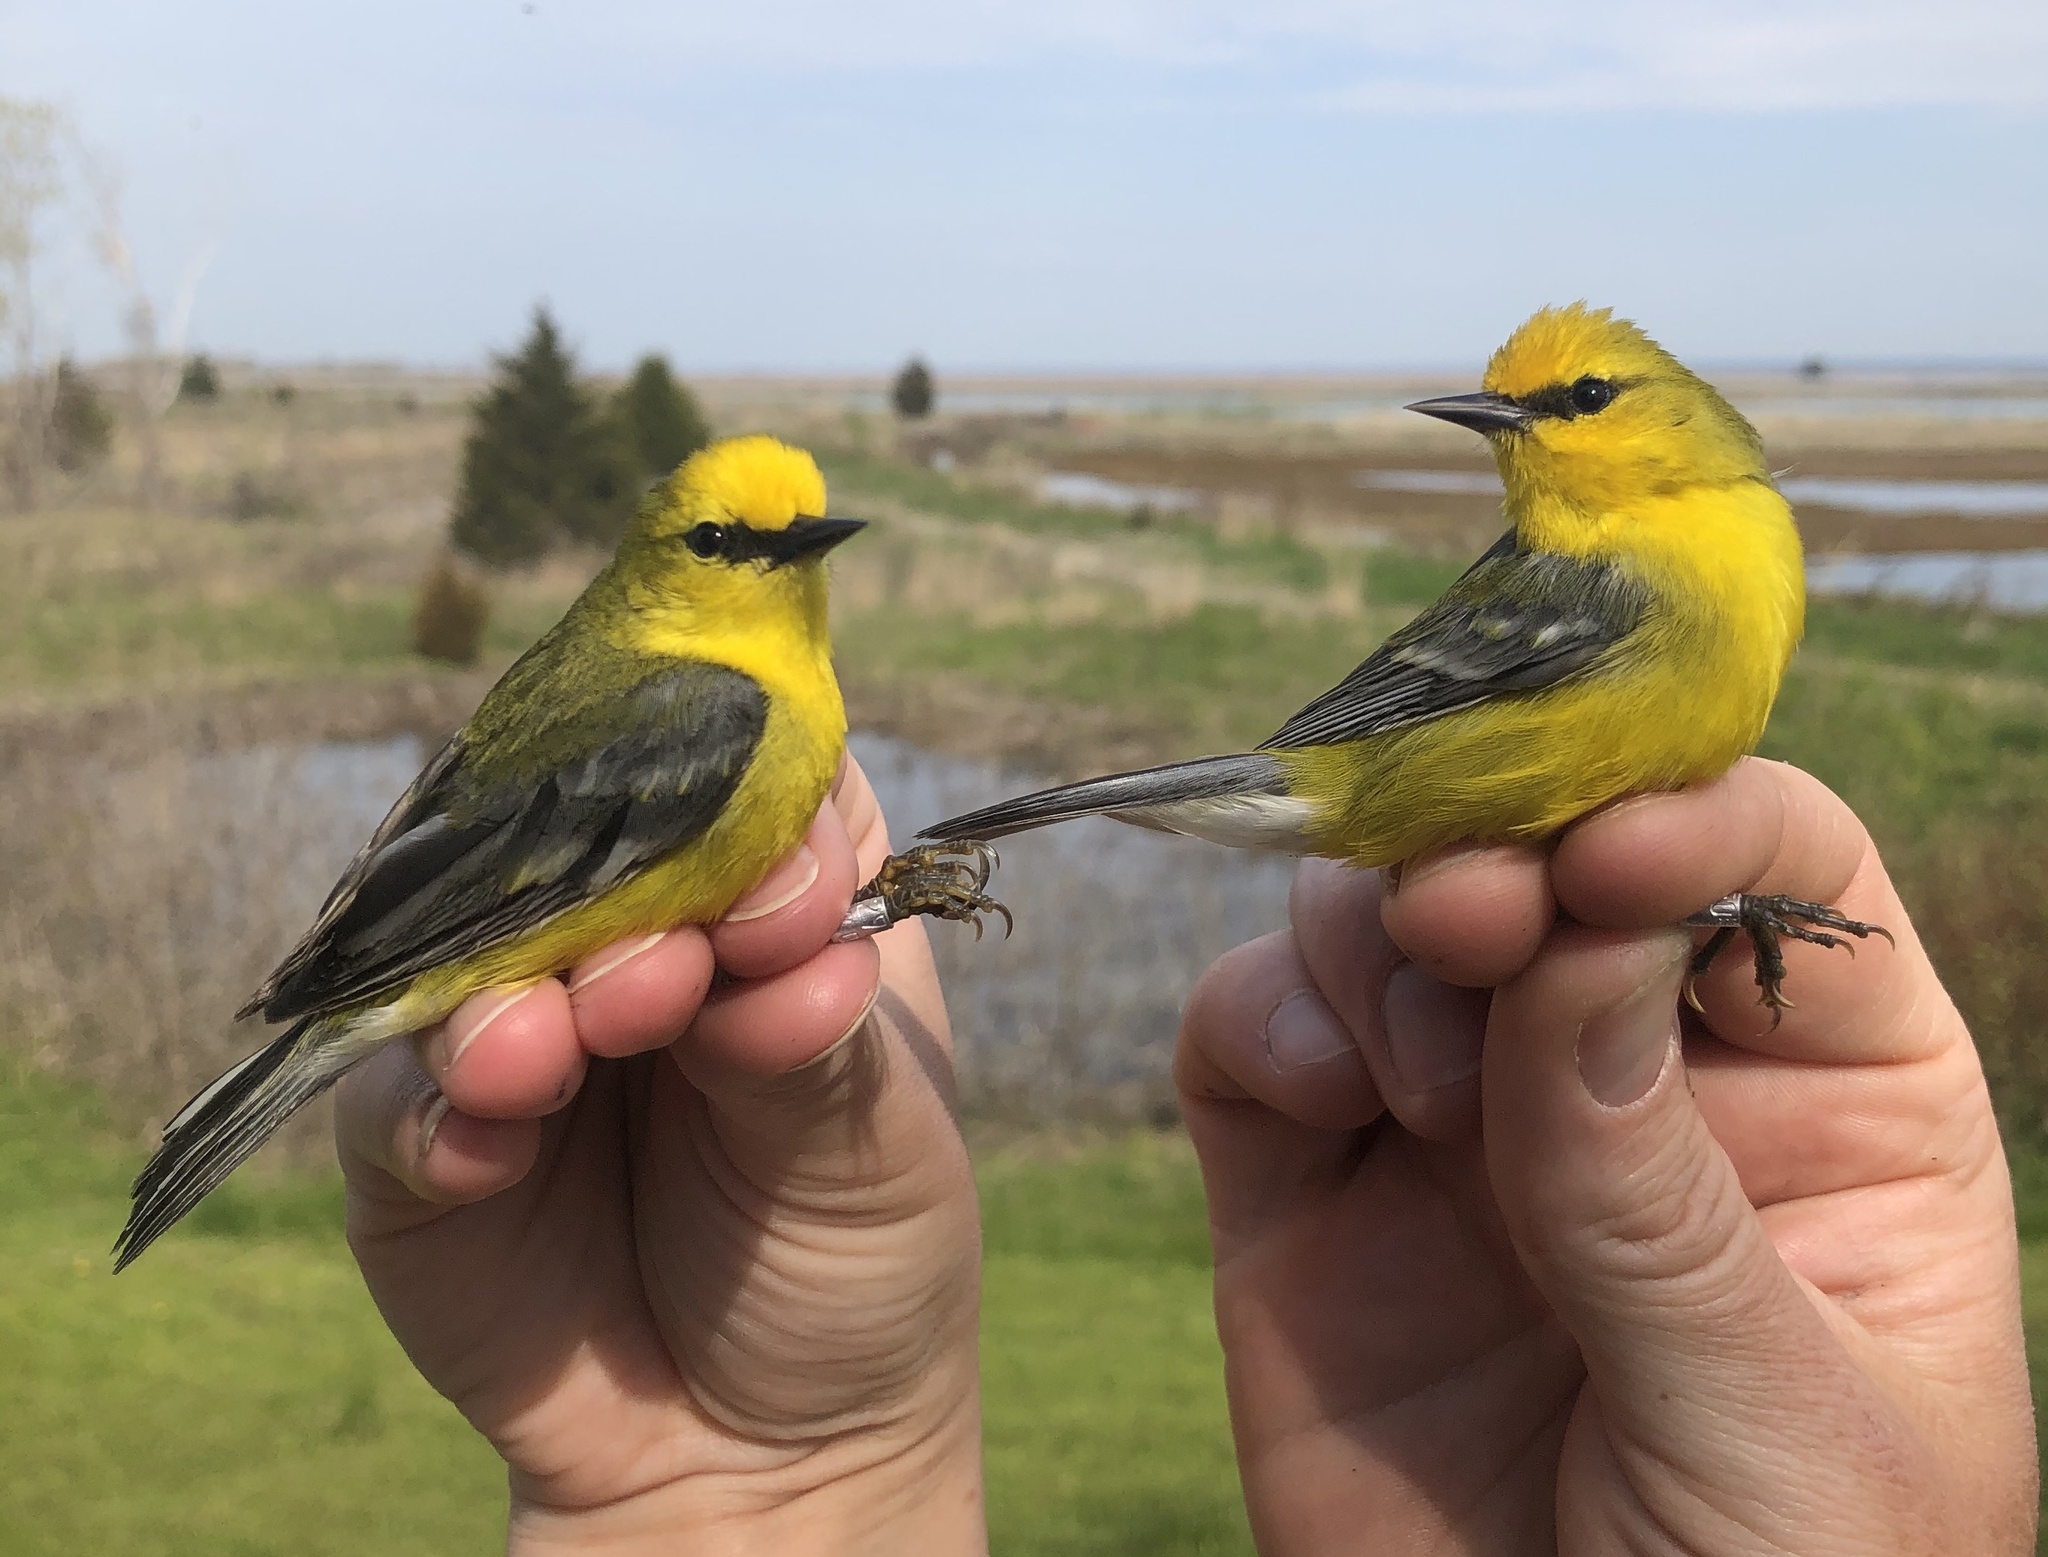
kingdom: Animalia
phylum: Chordata
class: Aves
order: Passeriformes
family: Parulidae
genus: Vermivora
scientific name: Vermivora cyanoptera
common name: Blue-winged warbler
